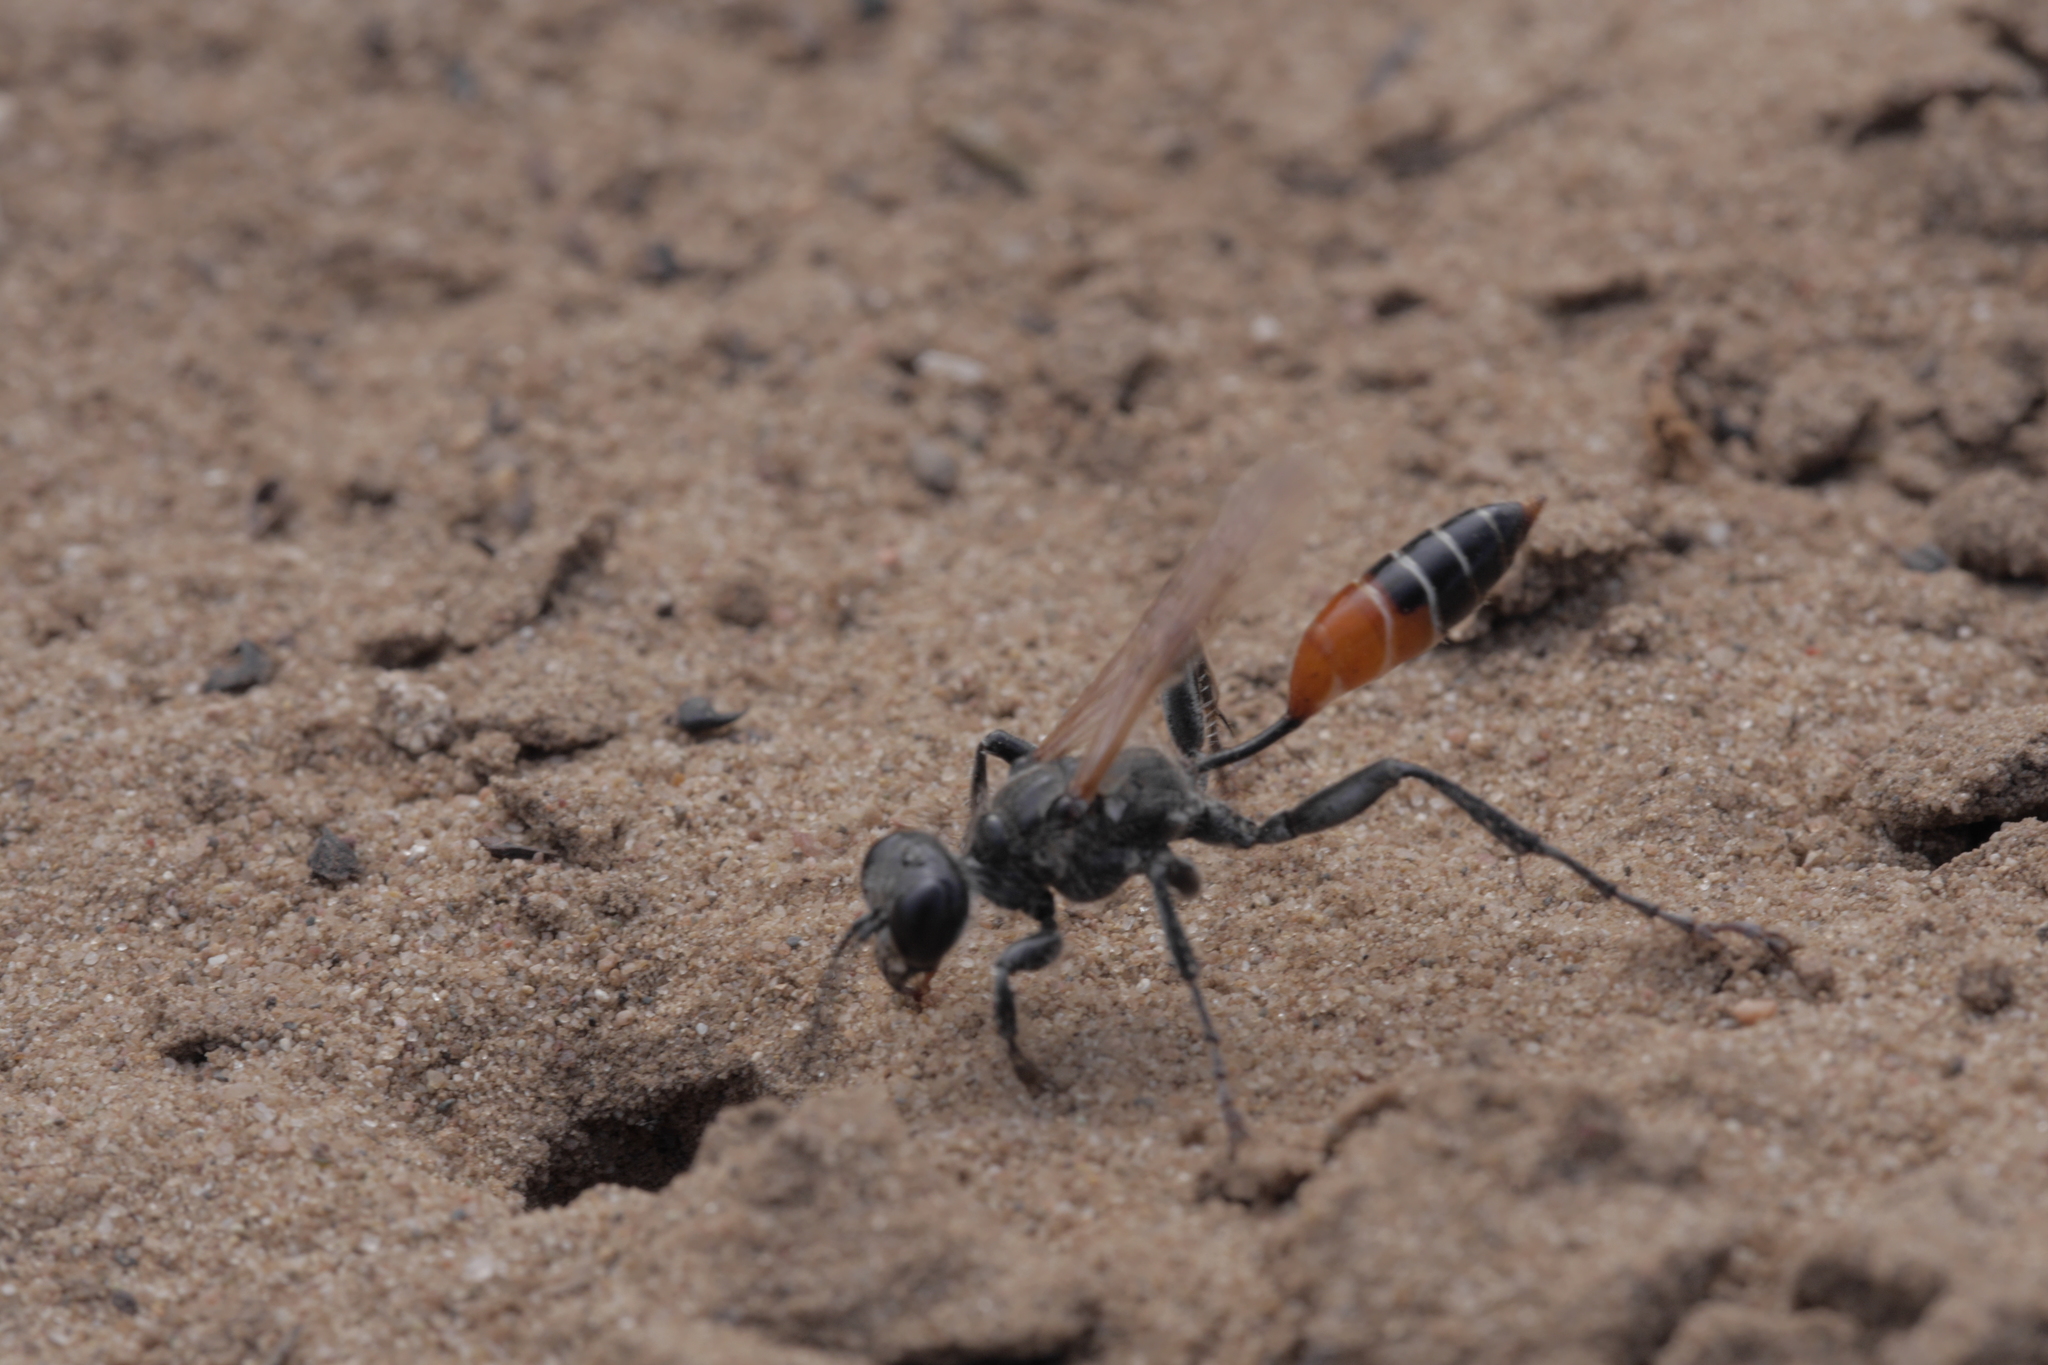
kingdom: Animalia
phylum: Arthropoda
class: Insecta
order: Hymenoptera
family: Sphecidae
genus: Prionyx
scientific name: Prionyx kirbii
